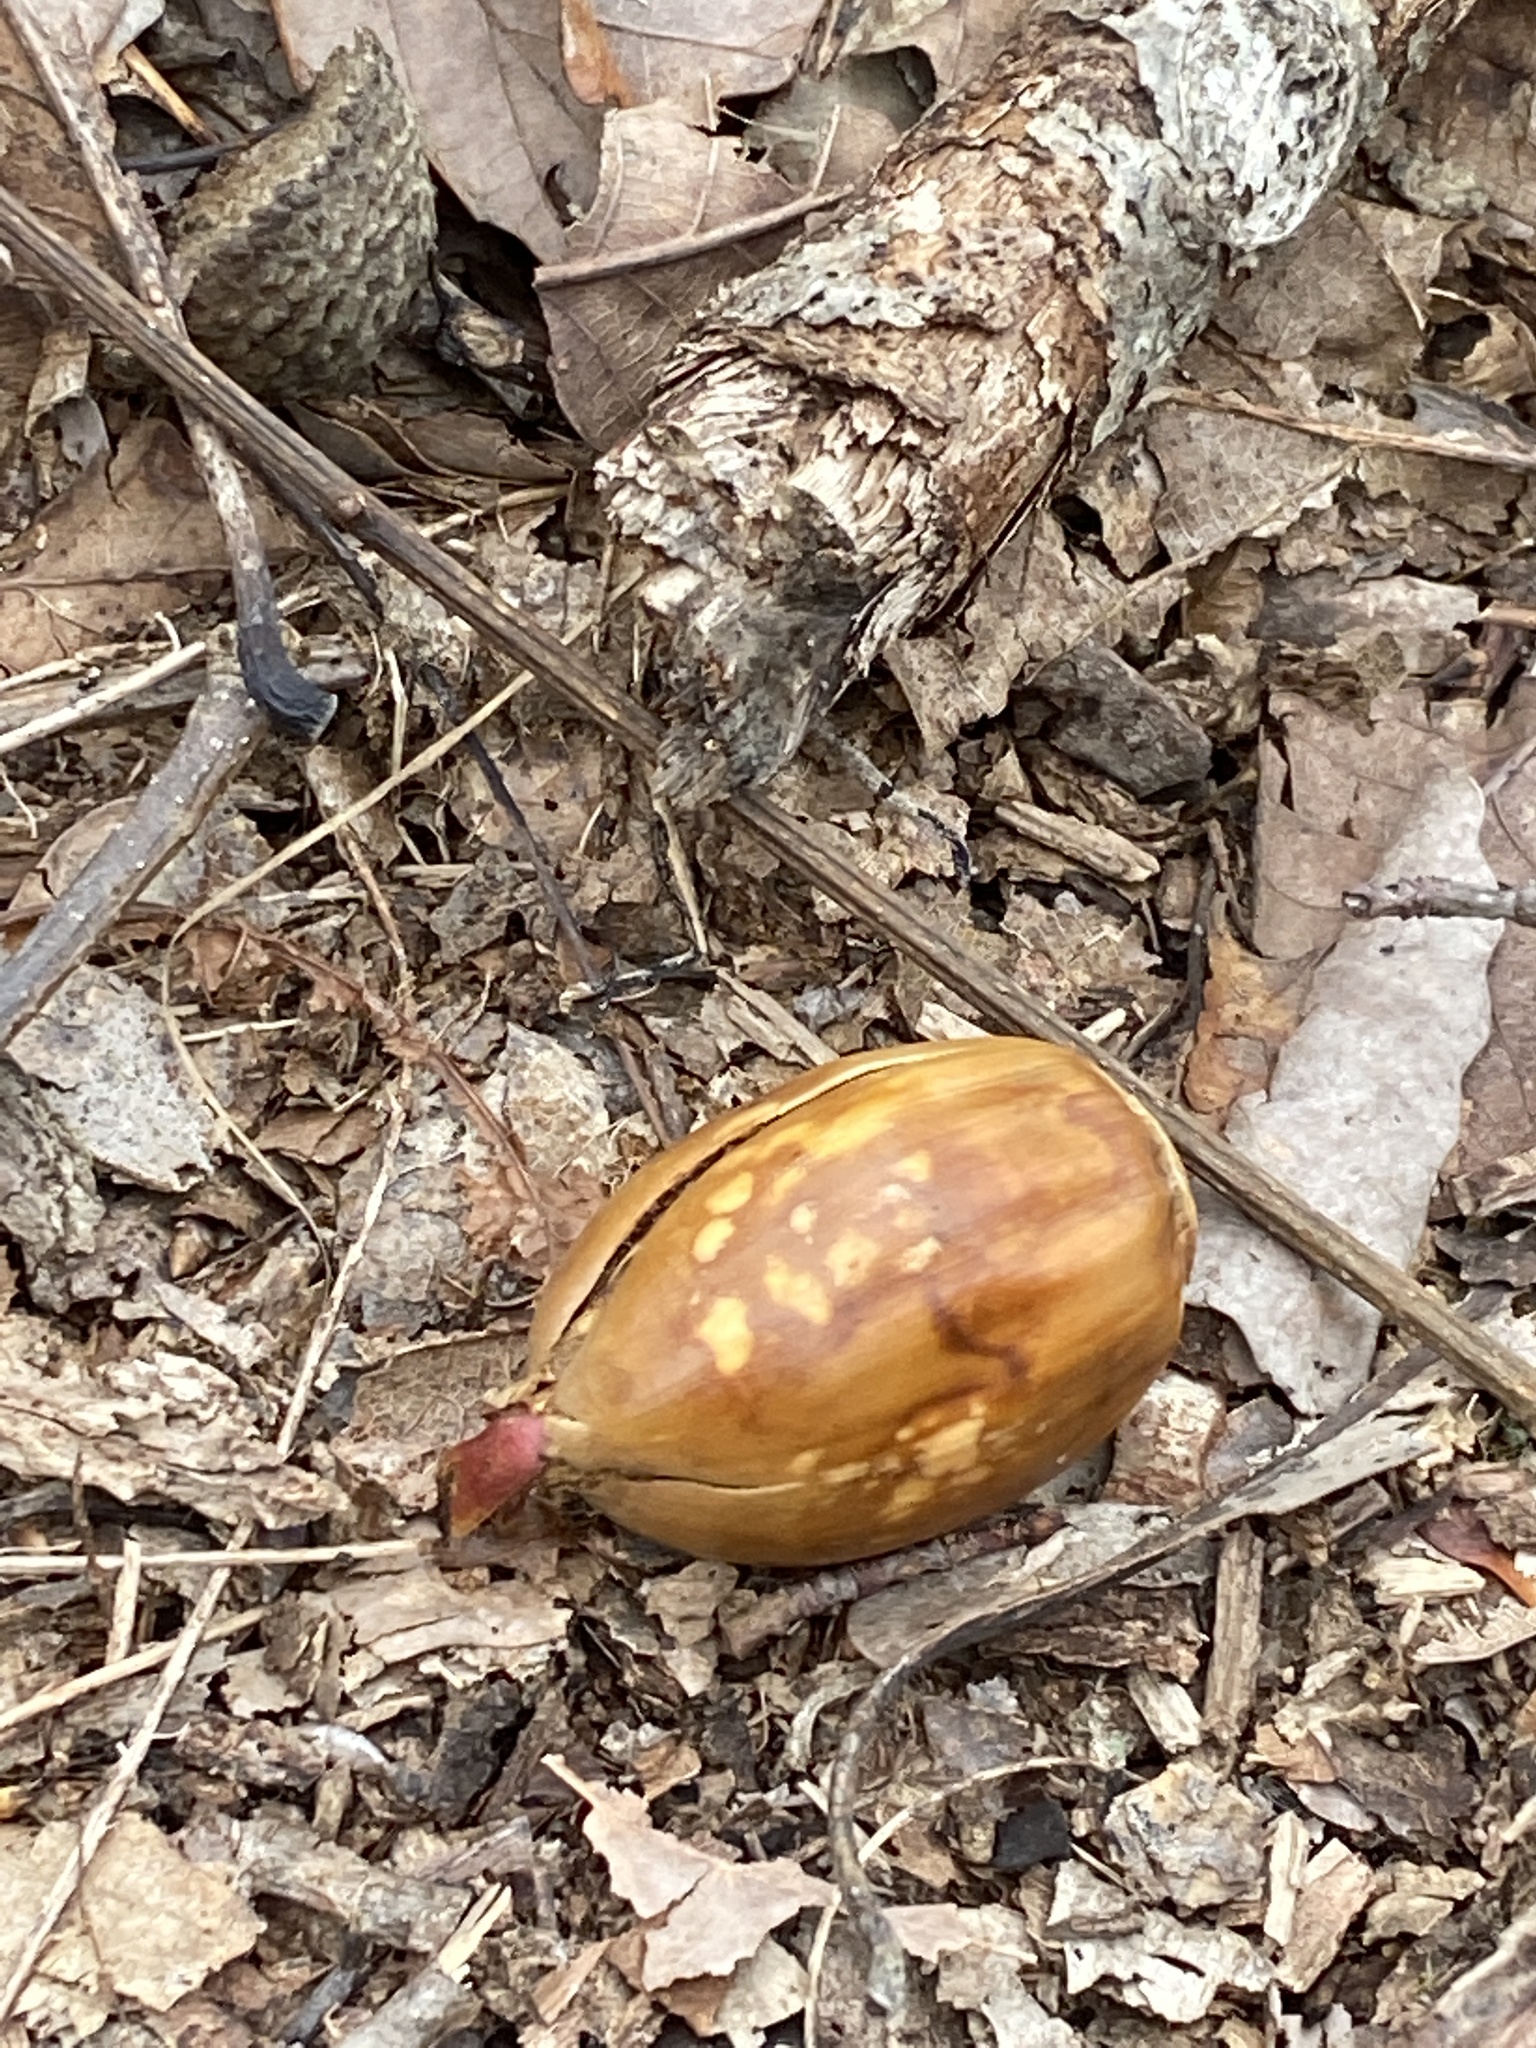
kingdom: Plantae
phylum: Tracheophyta
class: Magnoliopsida
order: Fagales
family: Fagaceae
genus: Quercus
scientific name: Quercus montana
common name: Chestnut oak
